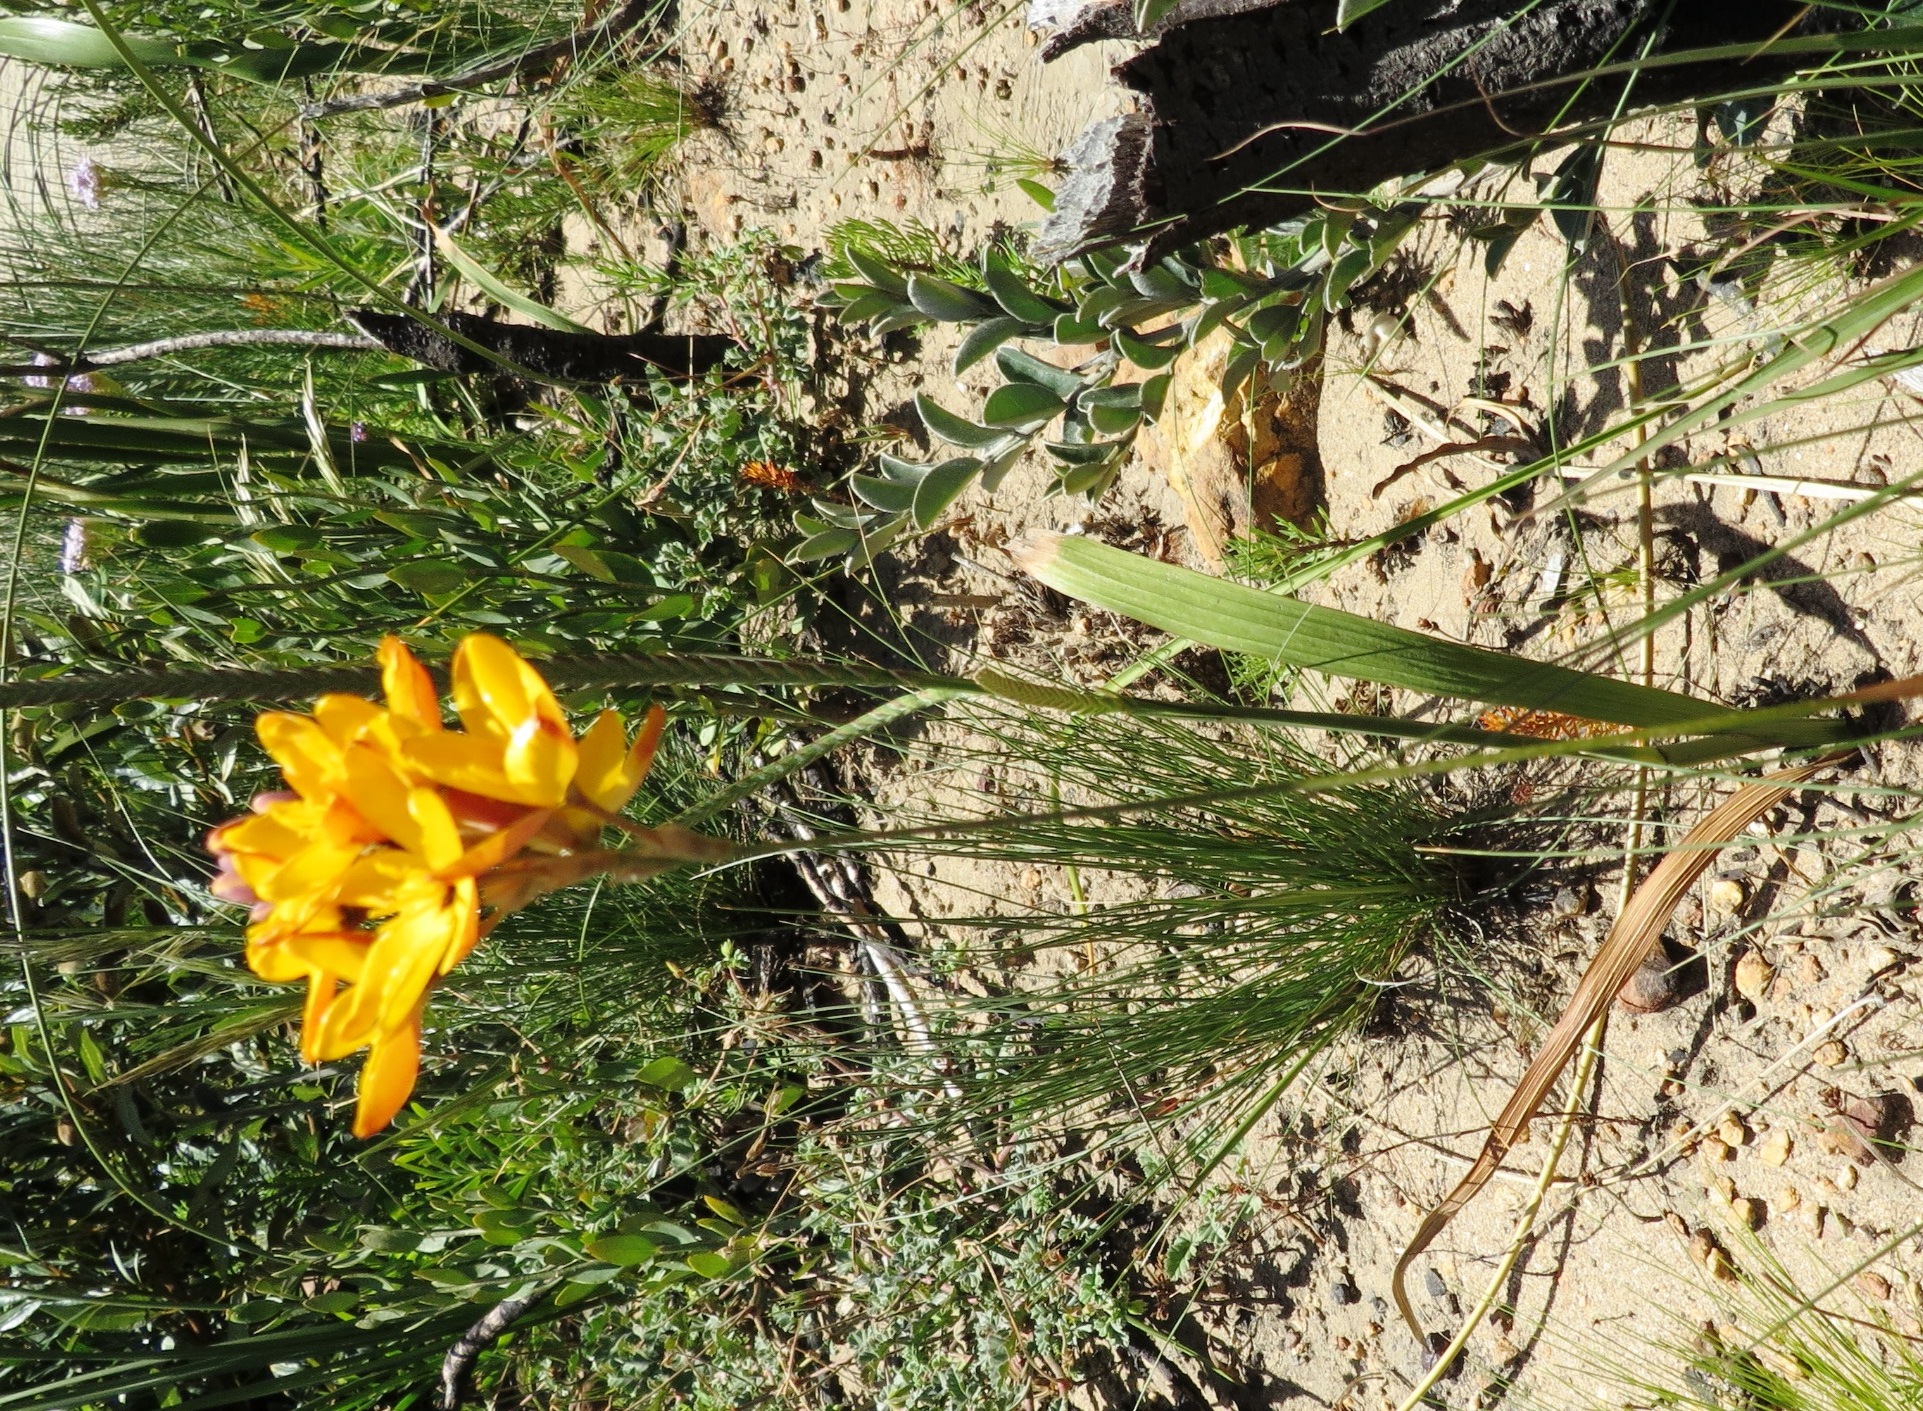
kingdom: Plantae
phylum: Tracheophyta
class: Liliopsida
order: Asparagales
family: Iridaceae
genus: Ixia
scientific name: Ixia dubia
